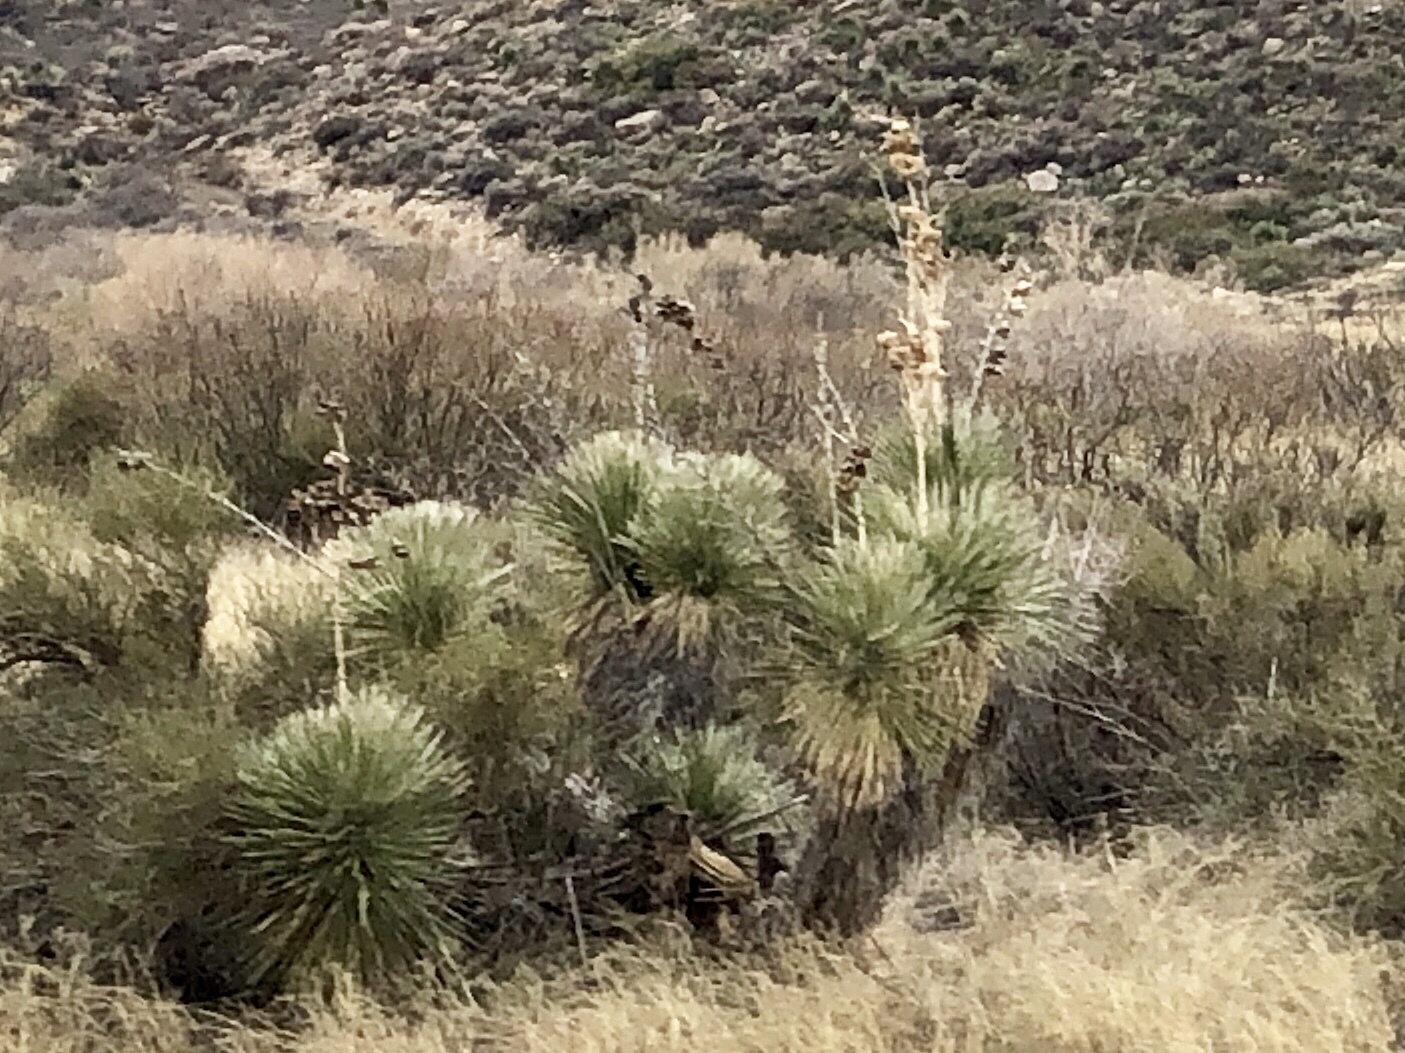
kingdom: Plantae
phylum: Tracheophyta
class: Liliopsida
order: Asparagales
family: Asparagaceae
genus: Yucca
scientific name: Yucca elata
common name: Palmella
